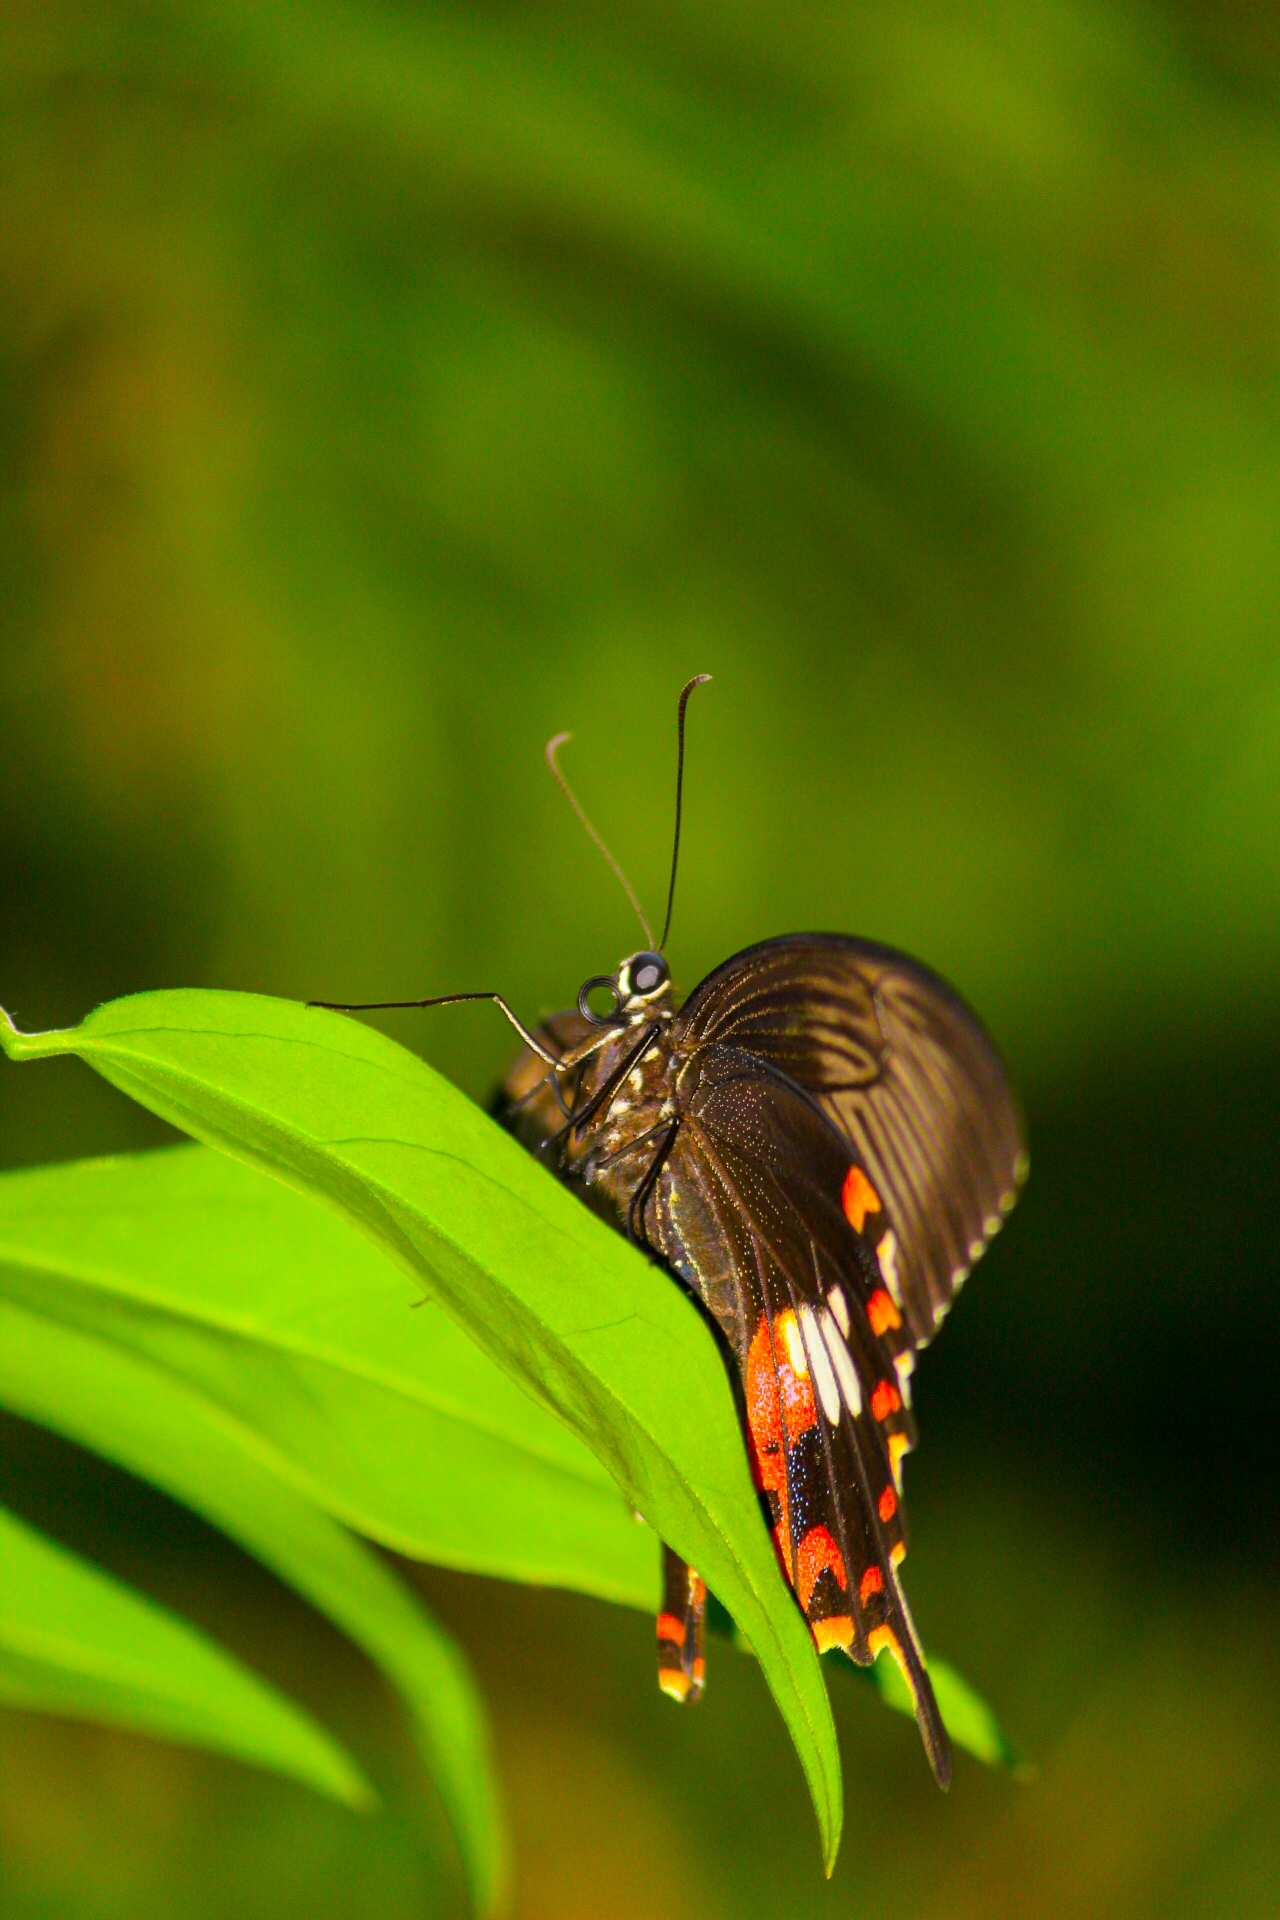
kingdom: Animalia
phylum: Arthropoda
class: Insecta
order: Lepidoptera
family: Papilionidae
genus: Papilio
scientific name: Papilio polytes
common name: Common mormon
